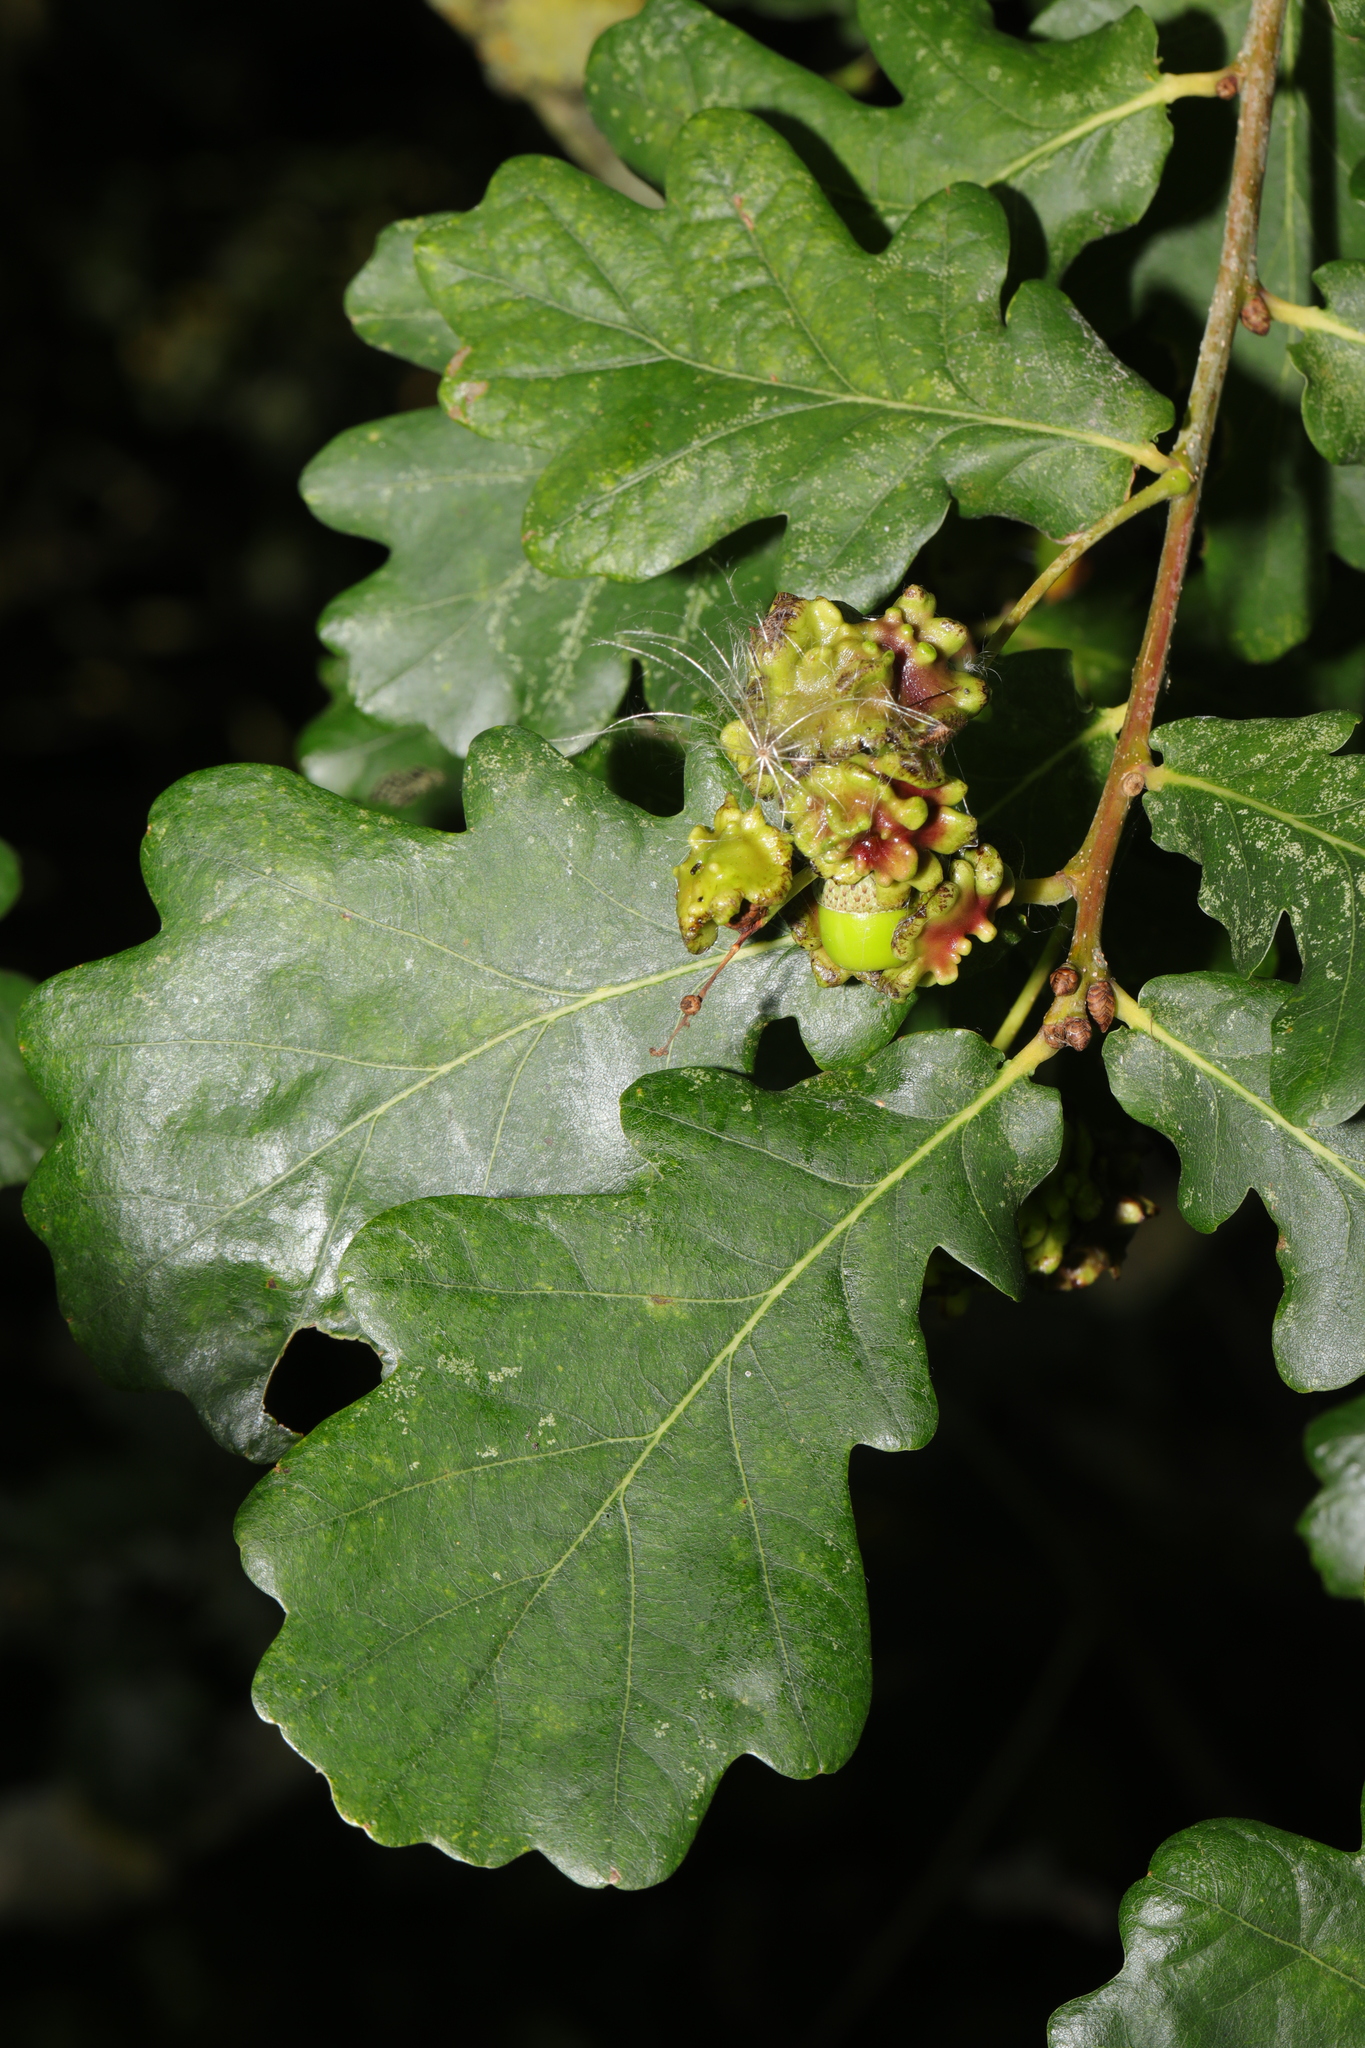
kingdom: Animalia
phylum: Arthropoda
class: Insecta
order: Hymenoptera
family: Cynipidae
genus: Andricus
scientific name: Andricus quercuscalicis
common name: Knopper gall
